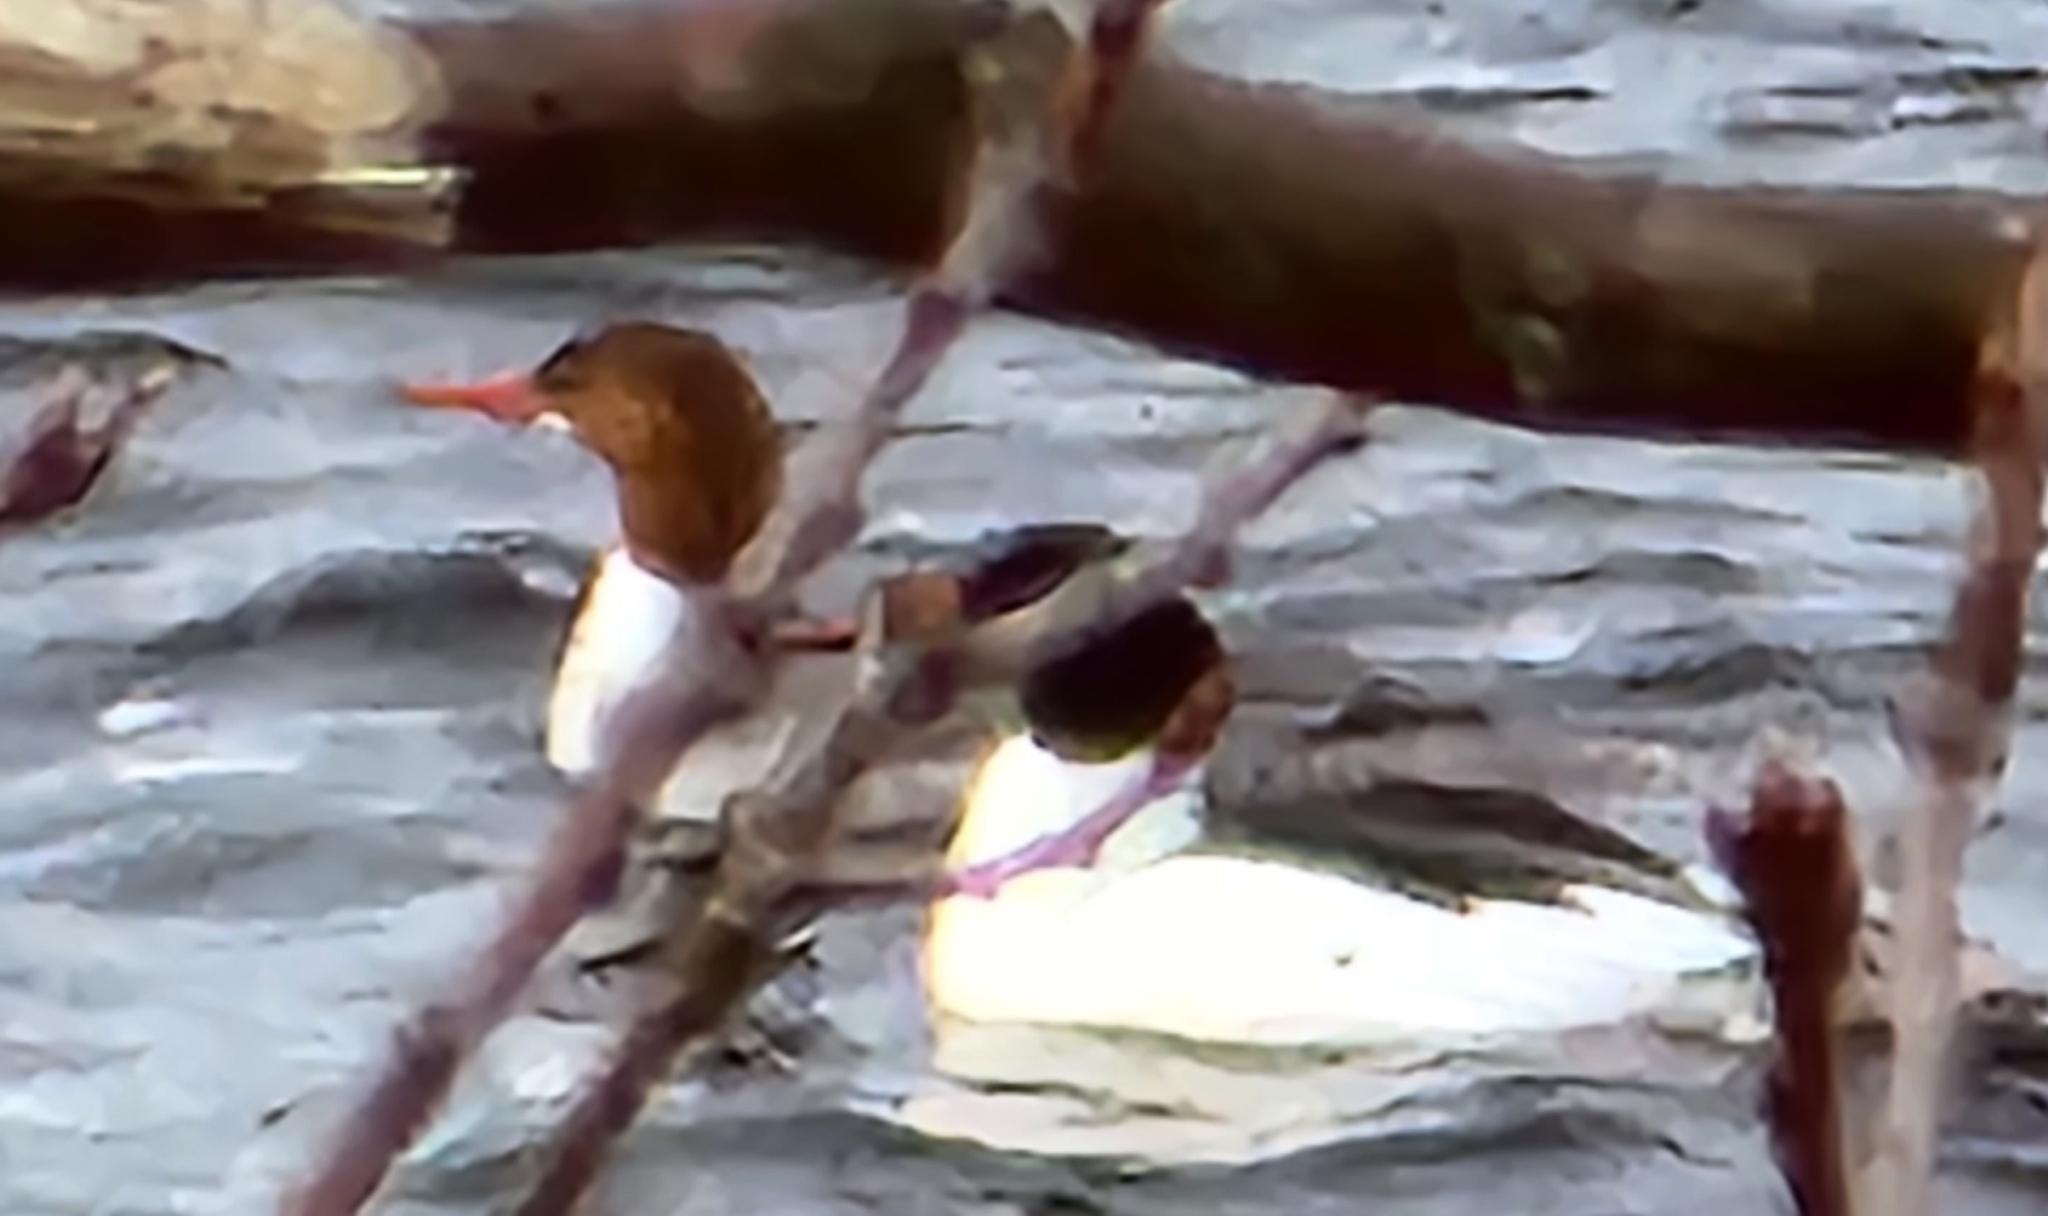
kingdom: Animalia
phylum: Chordata
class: Aves
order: Anseriformes
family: Anatidae
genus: Mergus
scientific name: Mergus merganser
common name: Common merganser
